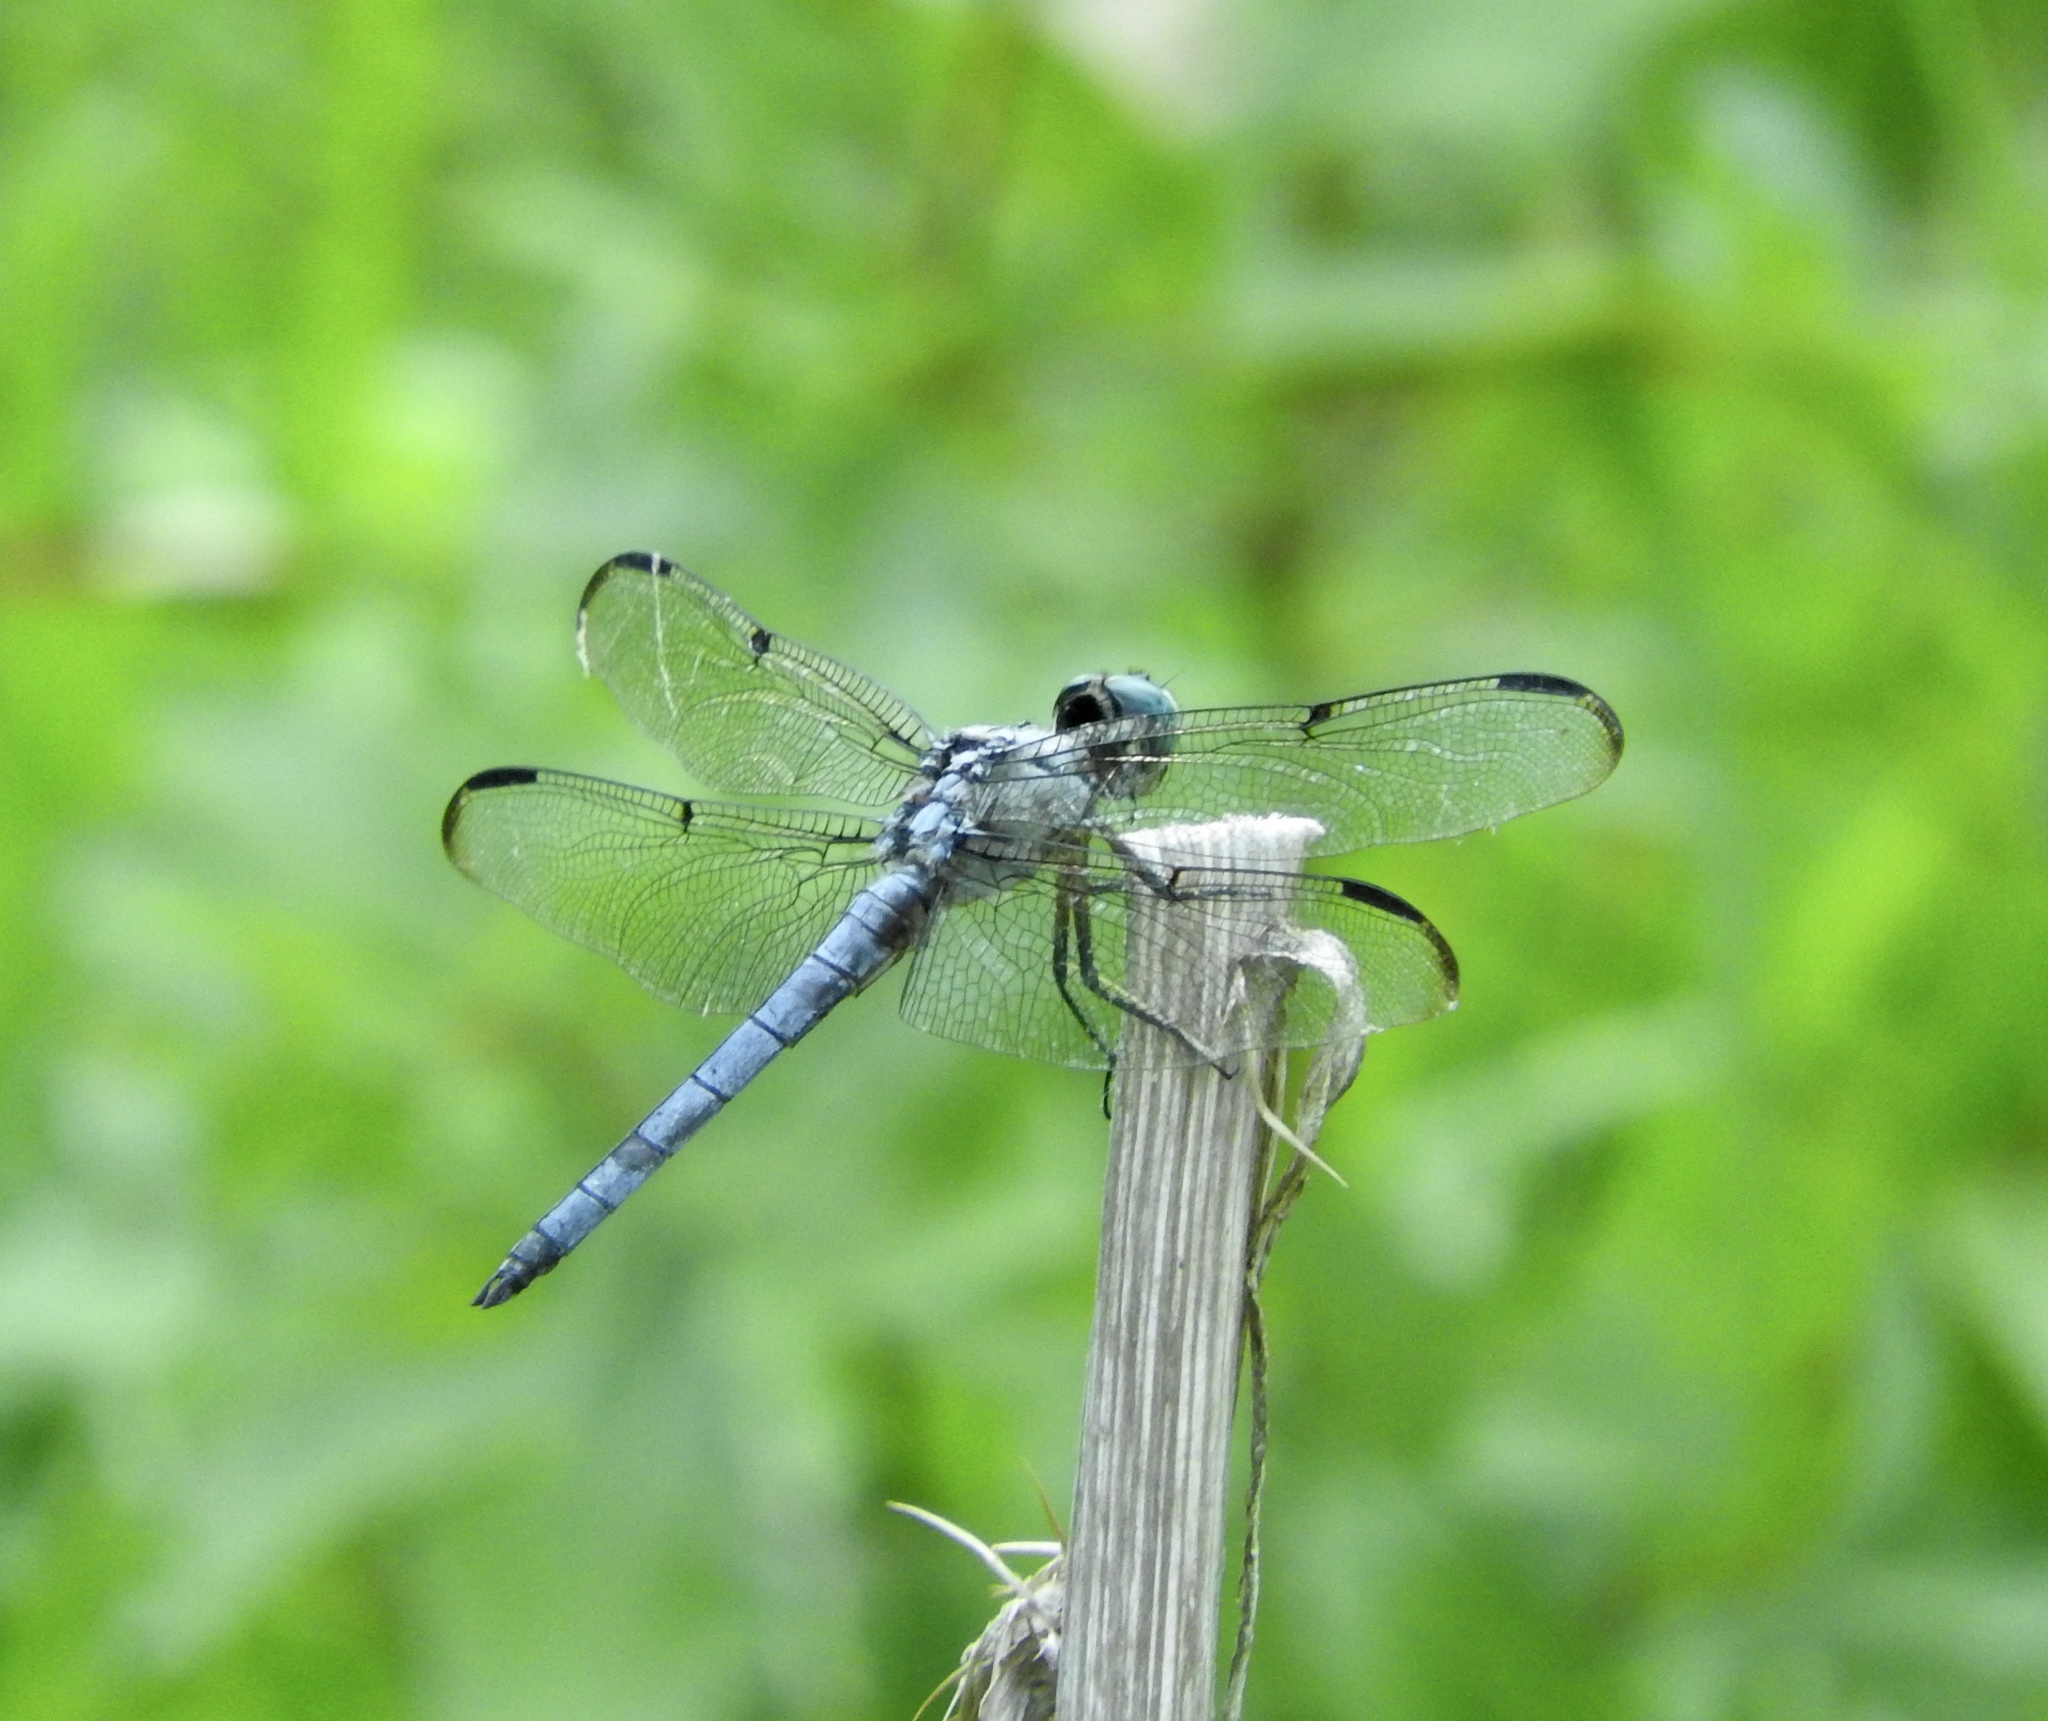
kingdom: Animalia
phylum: Arthropoda
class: Insecta
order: Odonata
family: Libellulidae
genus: Libellula
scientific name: Libellula vibrans
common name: Great blue skimmer
